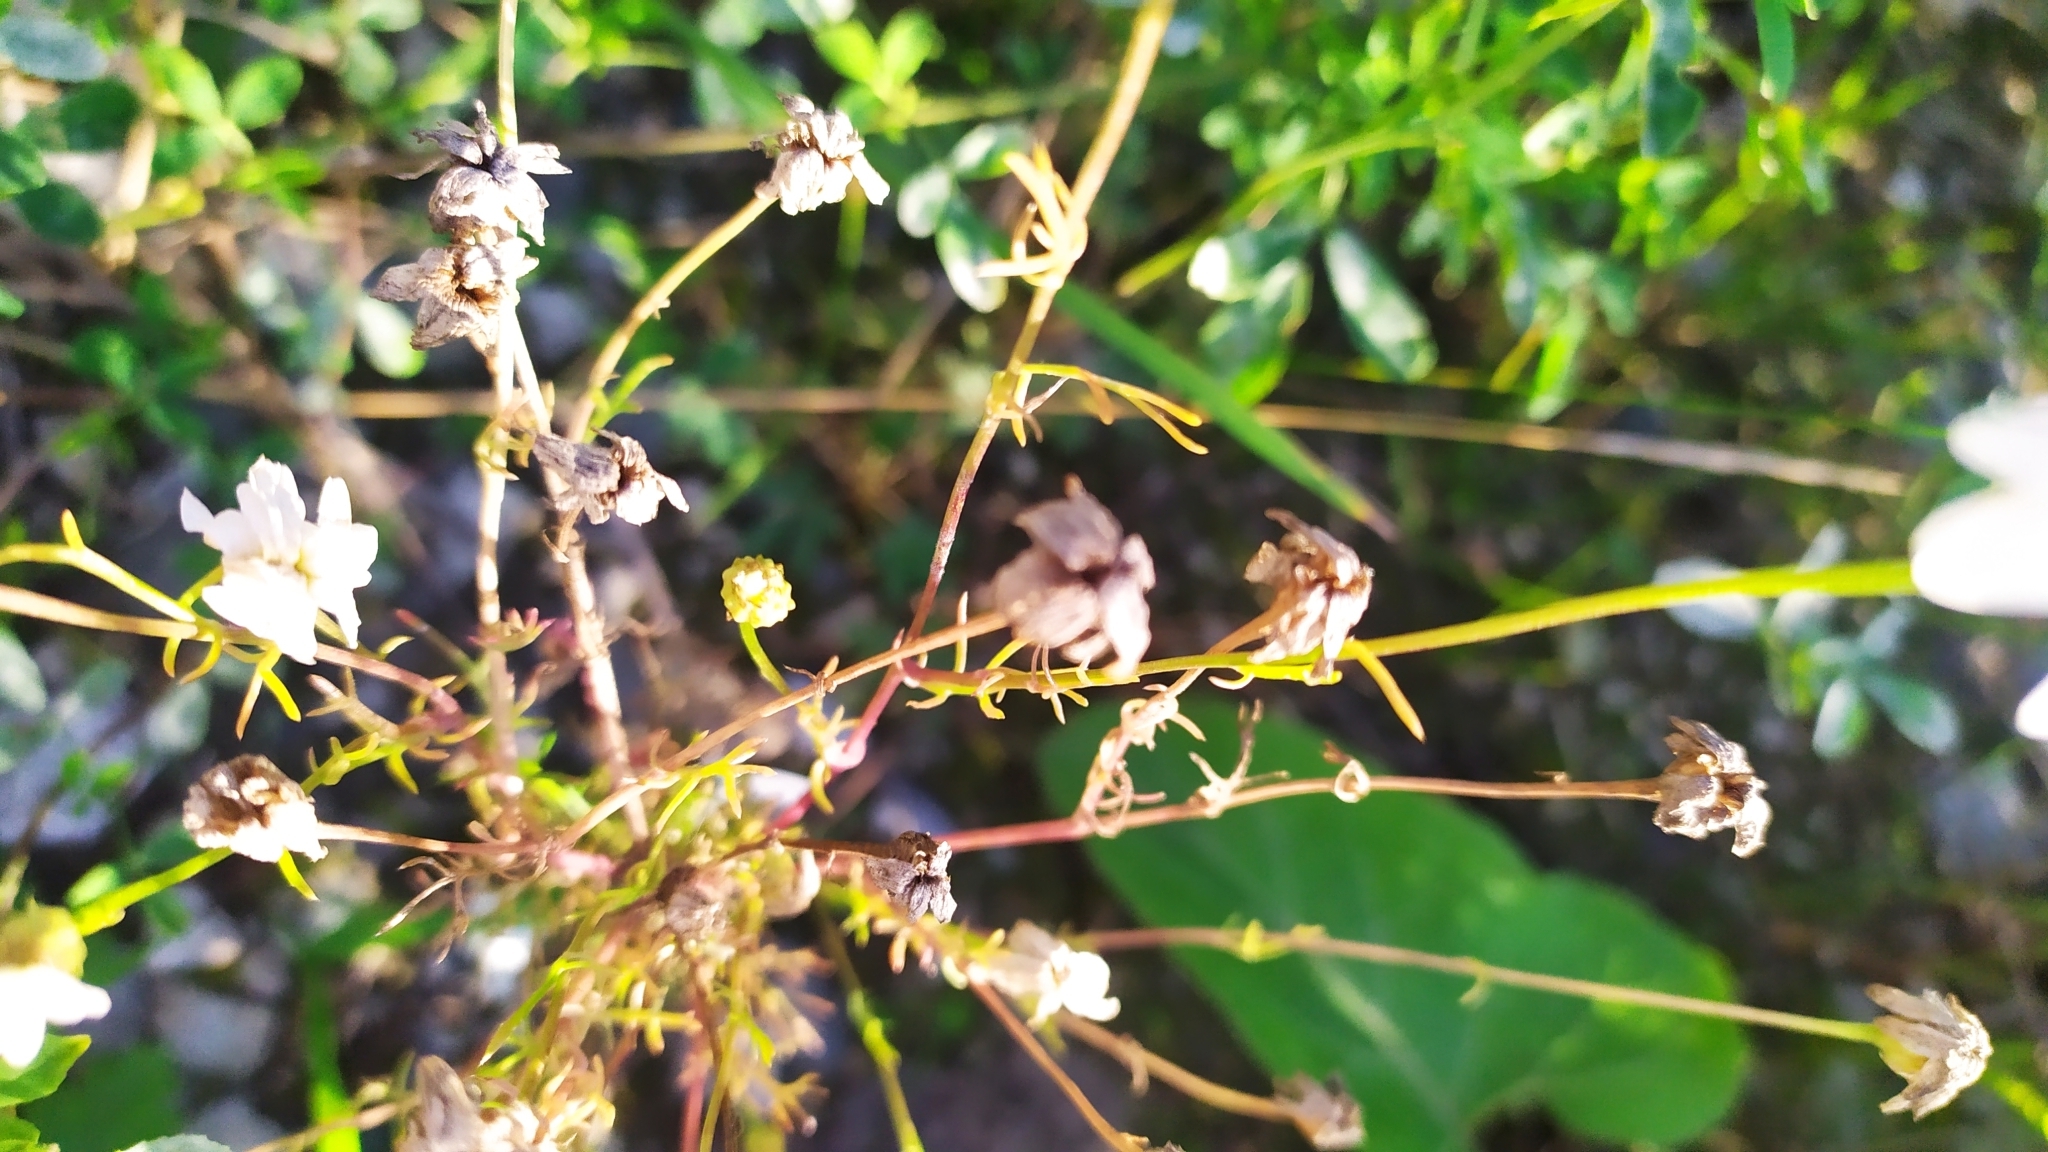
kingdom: Plantae
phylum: Tracheophyta
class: Magnoliopsida
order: Asterales
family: Asteraceae
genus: Tripleurospermum
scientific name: Tripleurospermum inodorum
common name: Scentless mayweed
